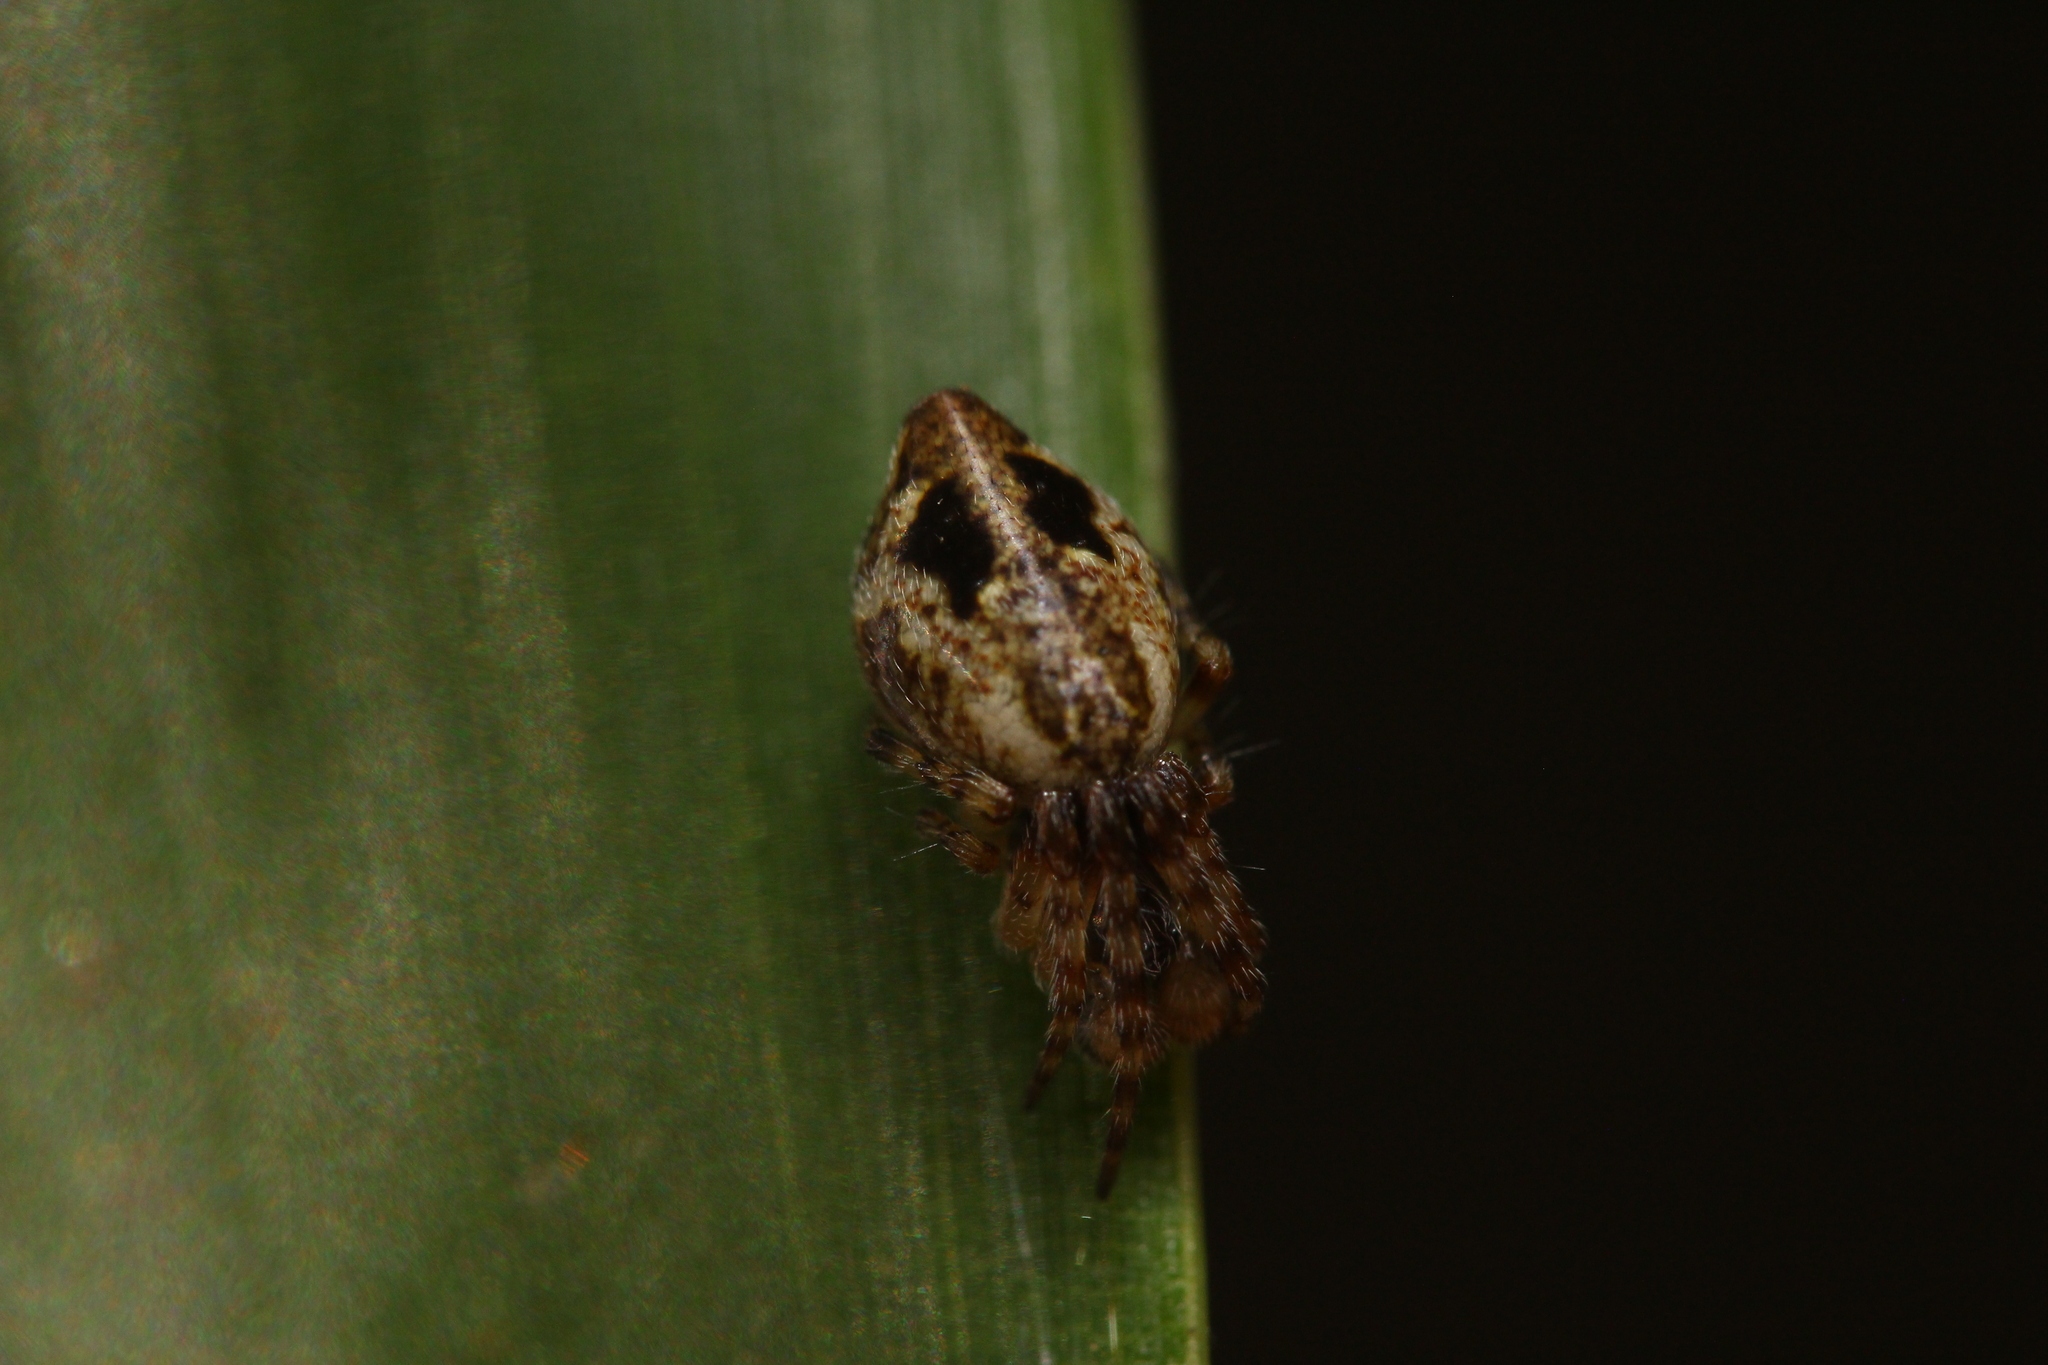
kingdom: Animalia
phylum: Arthropoda
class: Arachnida
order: Araneae
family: Araneidae
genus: Cyclosa
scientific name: Cyclosa conica
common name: Conical trashline orbweaver
